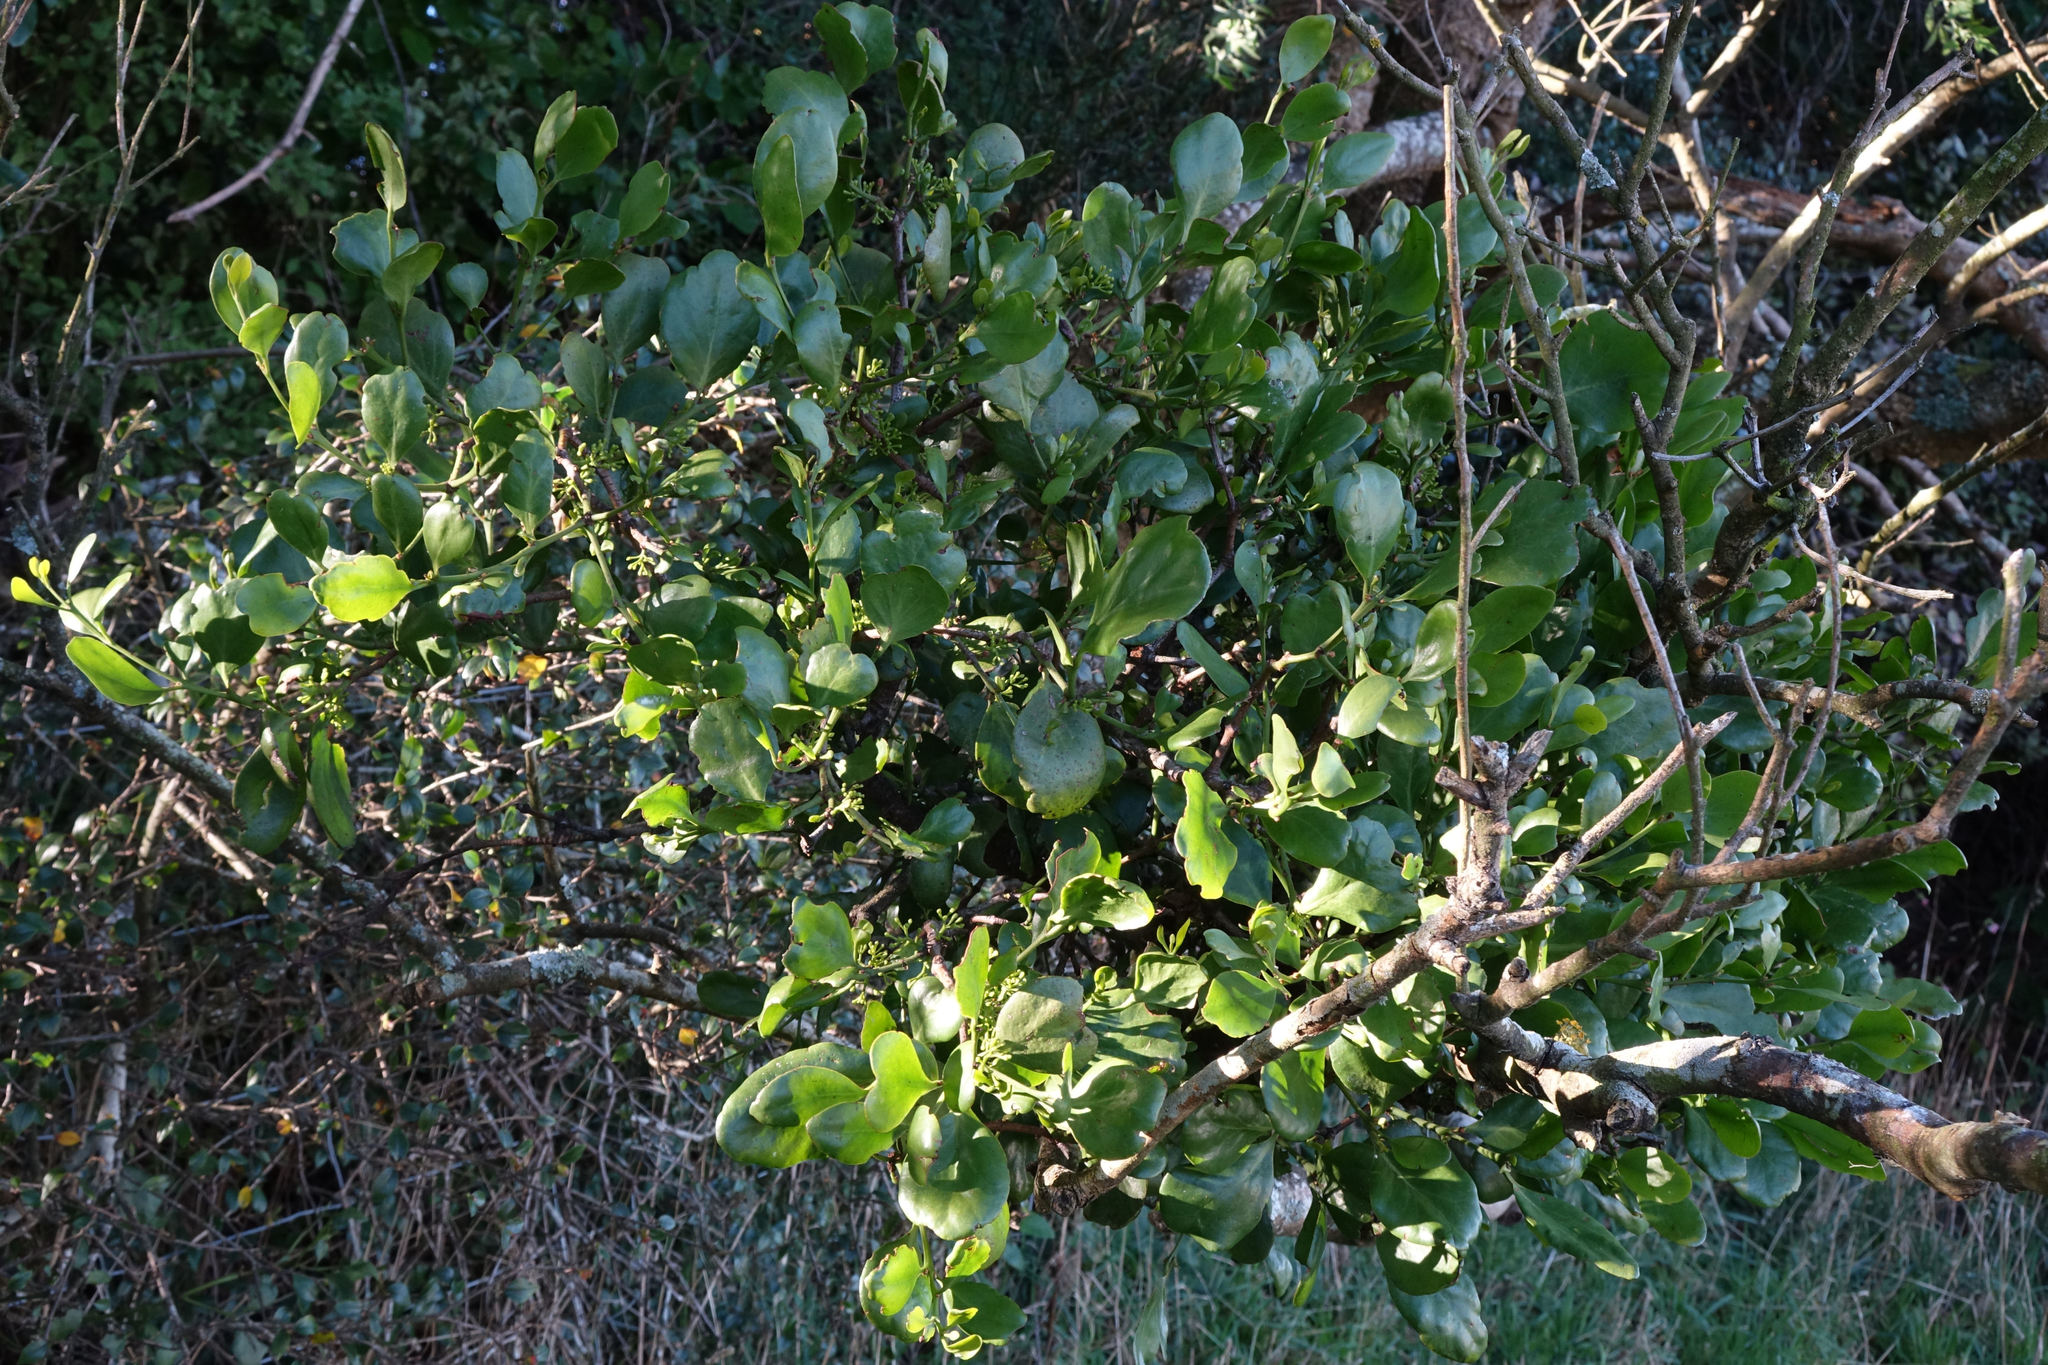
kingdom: Plantae
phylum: Tracheophyta
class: Magnoliopsida
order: Santalales
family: Loranthaceae
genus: Ileostylus
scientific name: Ileostylus micranthus
